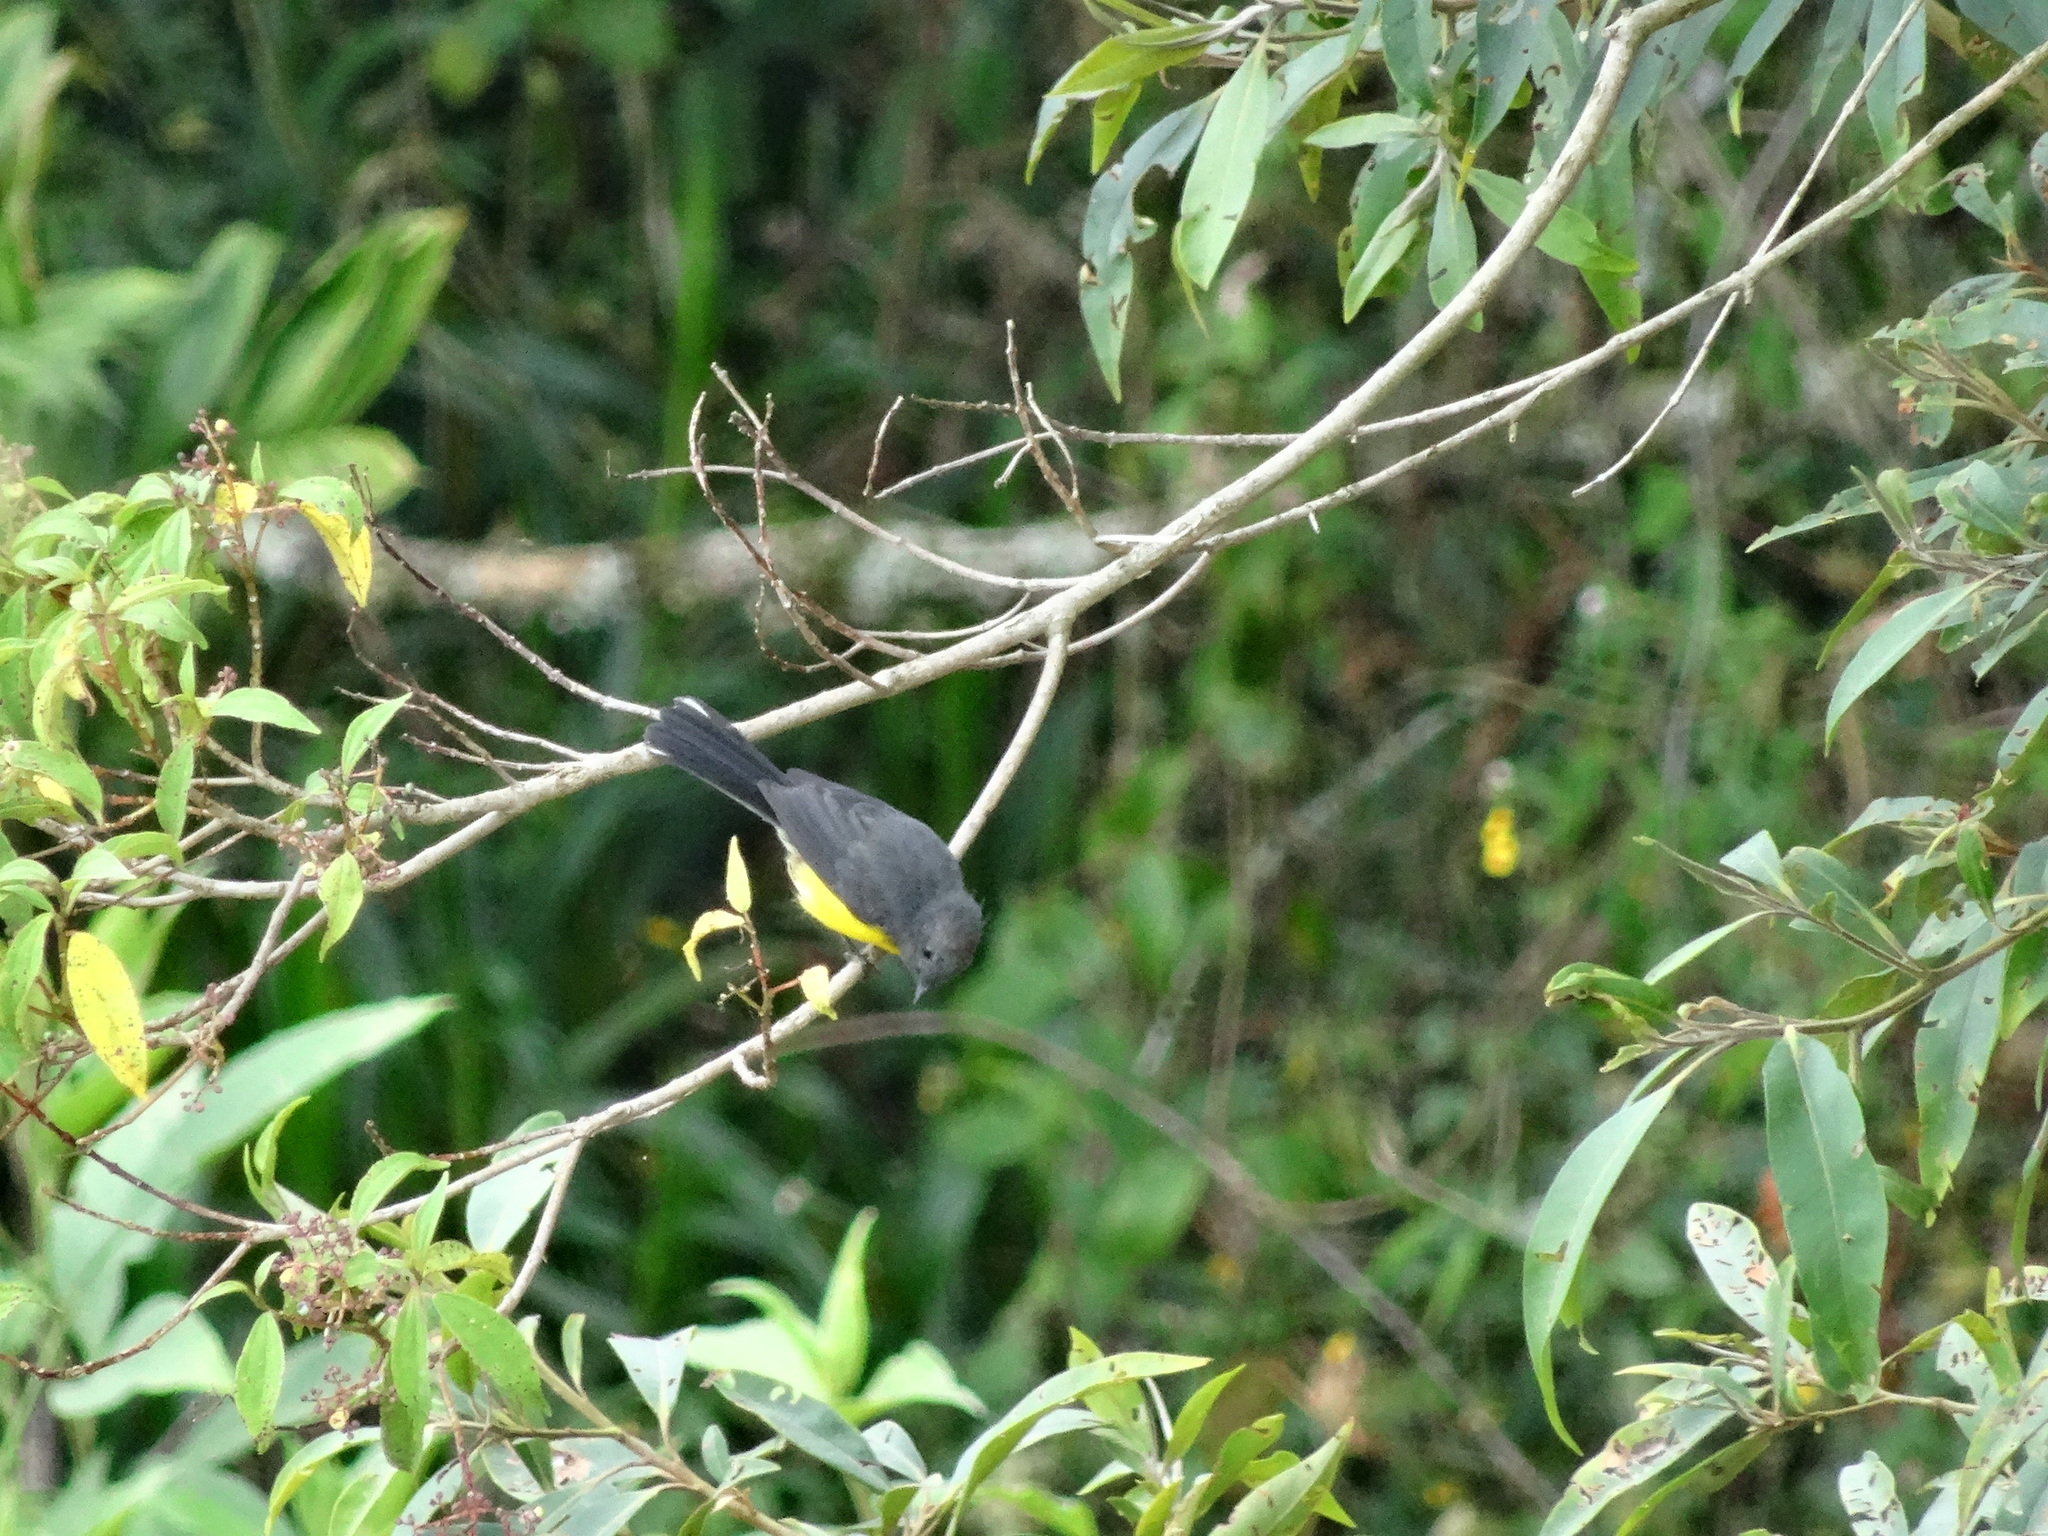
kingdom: Animalia
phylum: Chordata
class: Aves
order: Passeriformes
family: Parulidae
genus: Myioborus
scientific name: Myioborus miniatus
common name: Slate-throated redstart
